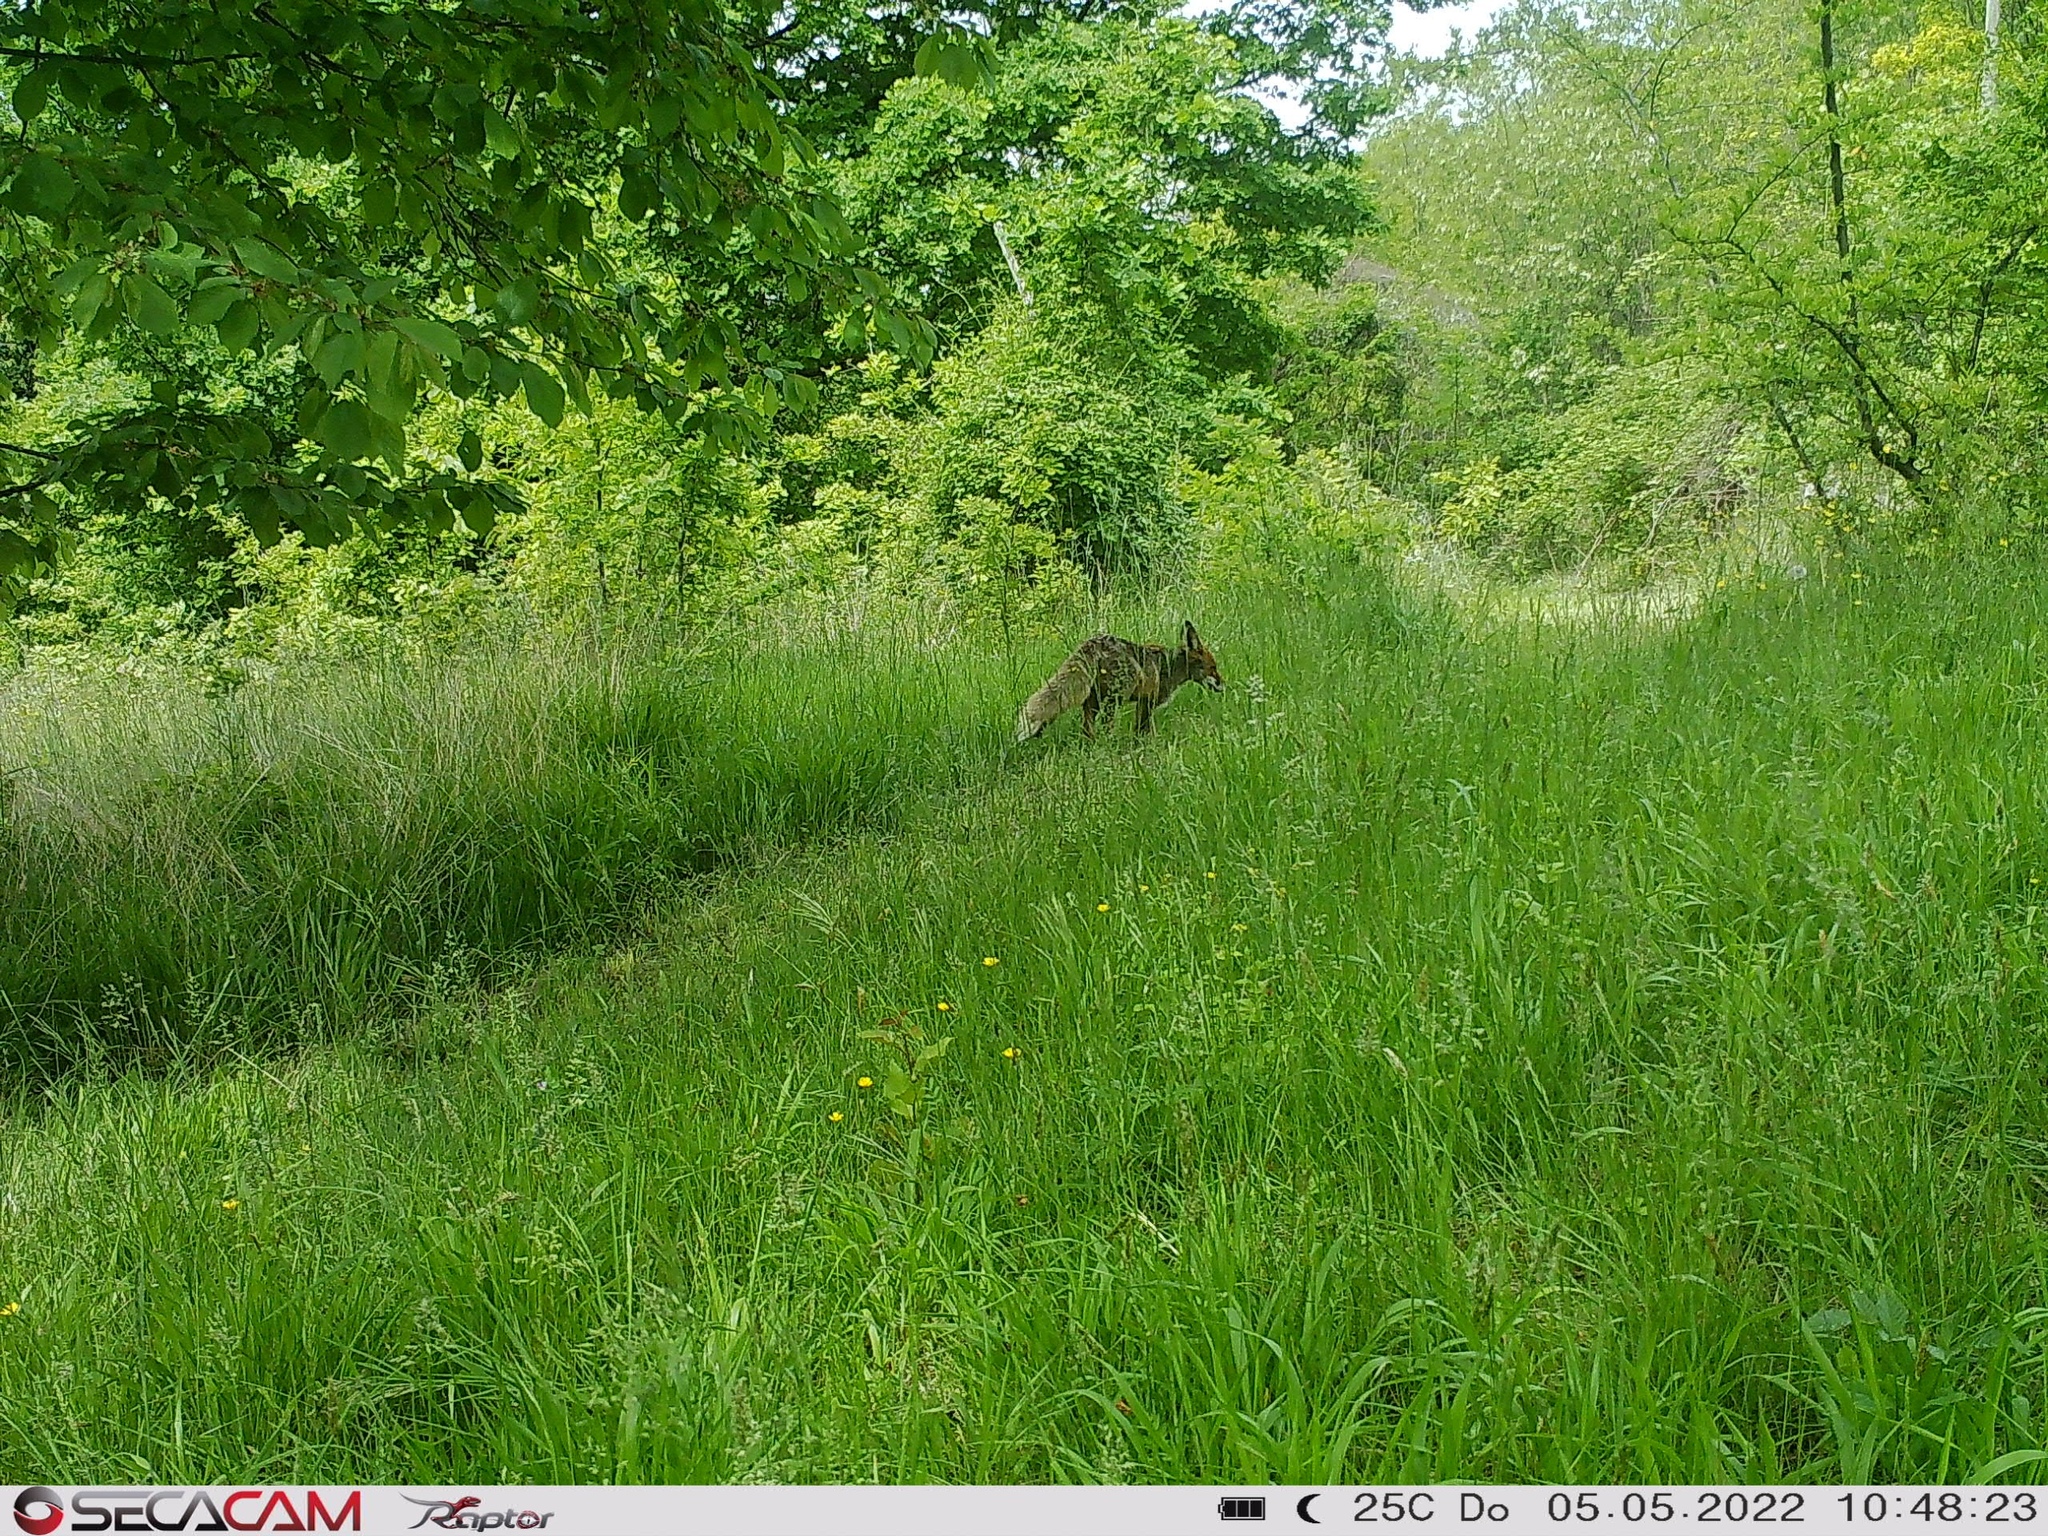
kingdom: Animalia
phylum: Chordata
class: Mammalia
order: Carnivora
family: Canidae
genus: Vulpes
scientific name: Vulpes vulpes
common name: Red fox
